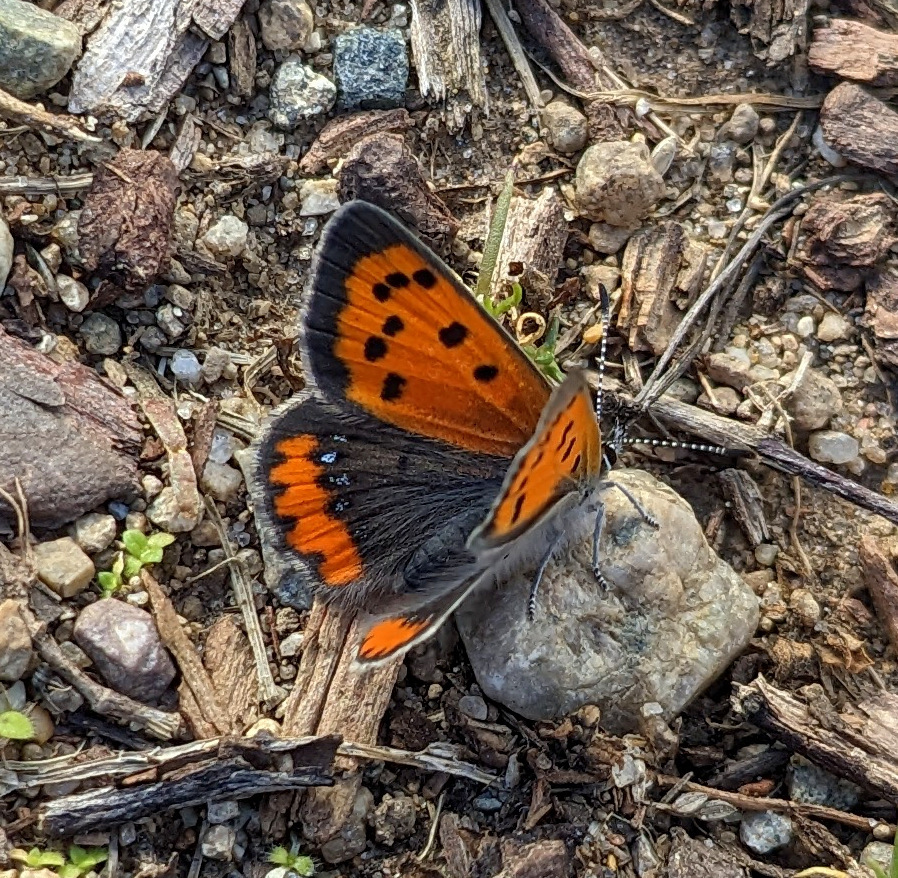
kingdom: Animalia
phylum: Arthropoda
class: Insecta
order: Lepidoptera
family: Lycaenidae
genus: Lycaena
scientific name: Lycaena hypophlaeas
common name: American copper
